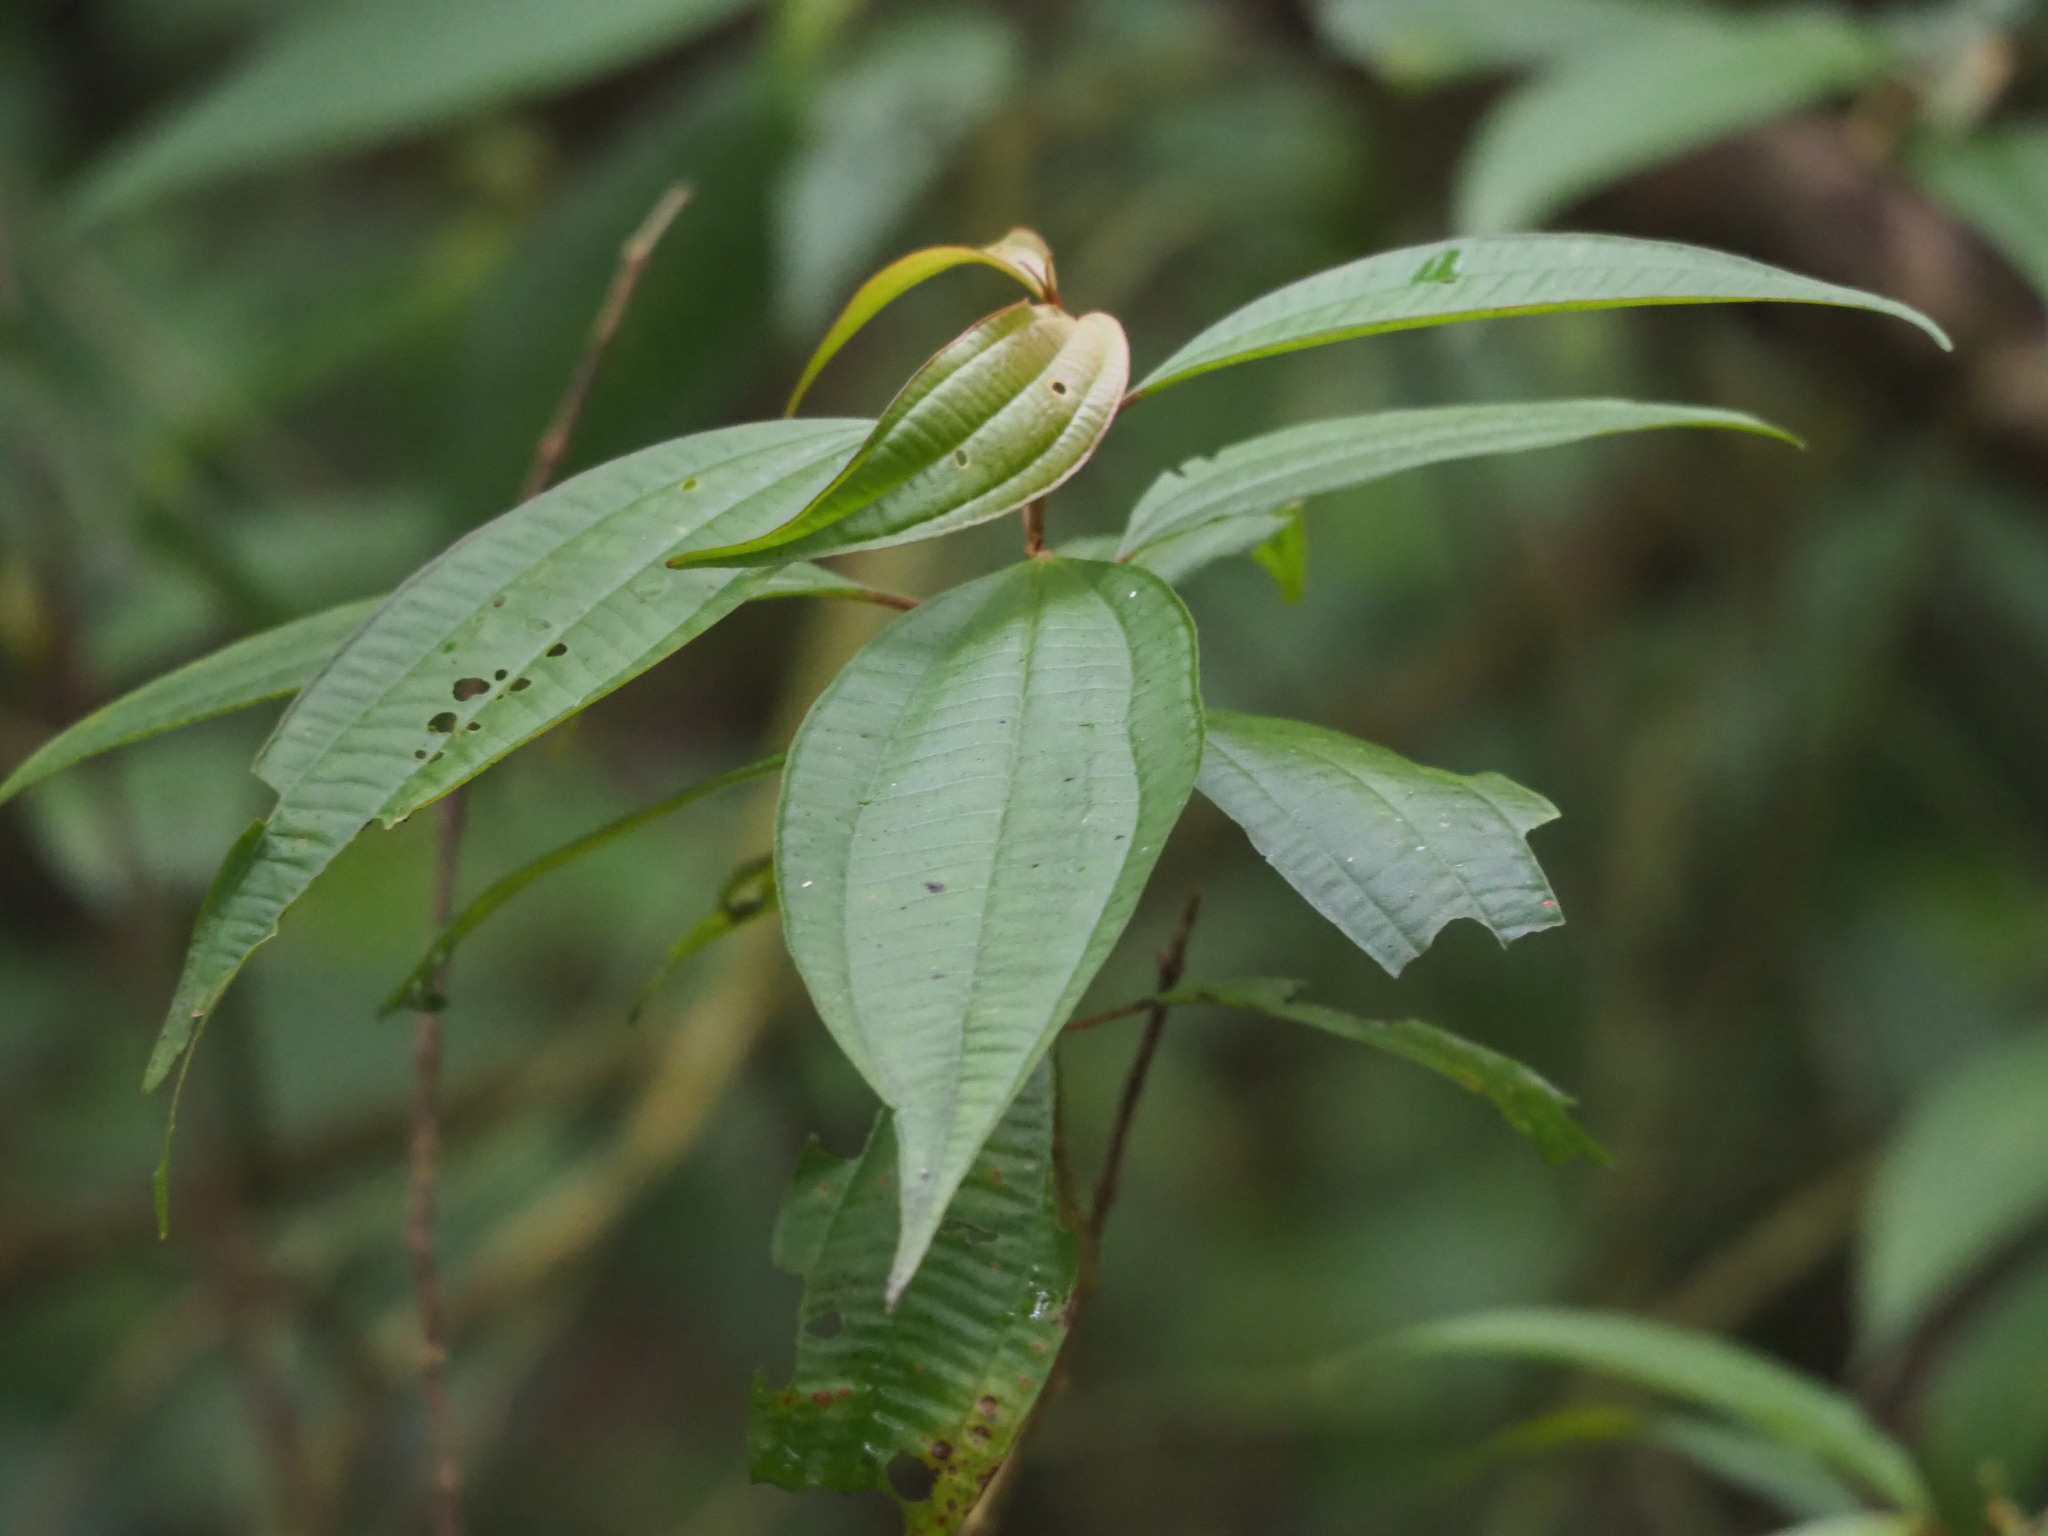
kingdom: Plantae
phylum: Tracheophyta
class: Magnoliopsida
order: Myrtales
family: Melastomataceae
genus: Blastus
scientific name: Blastus cochinchinensis
